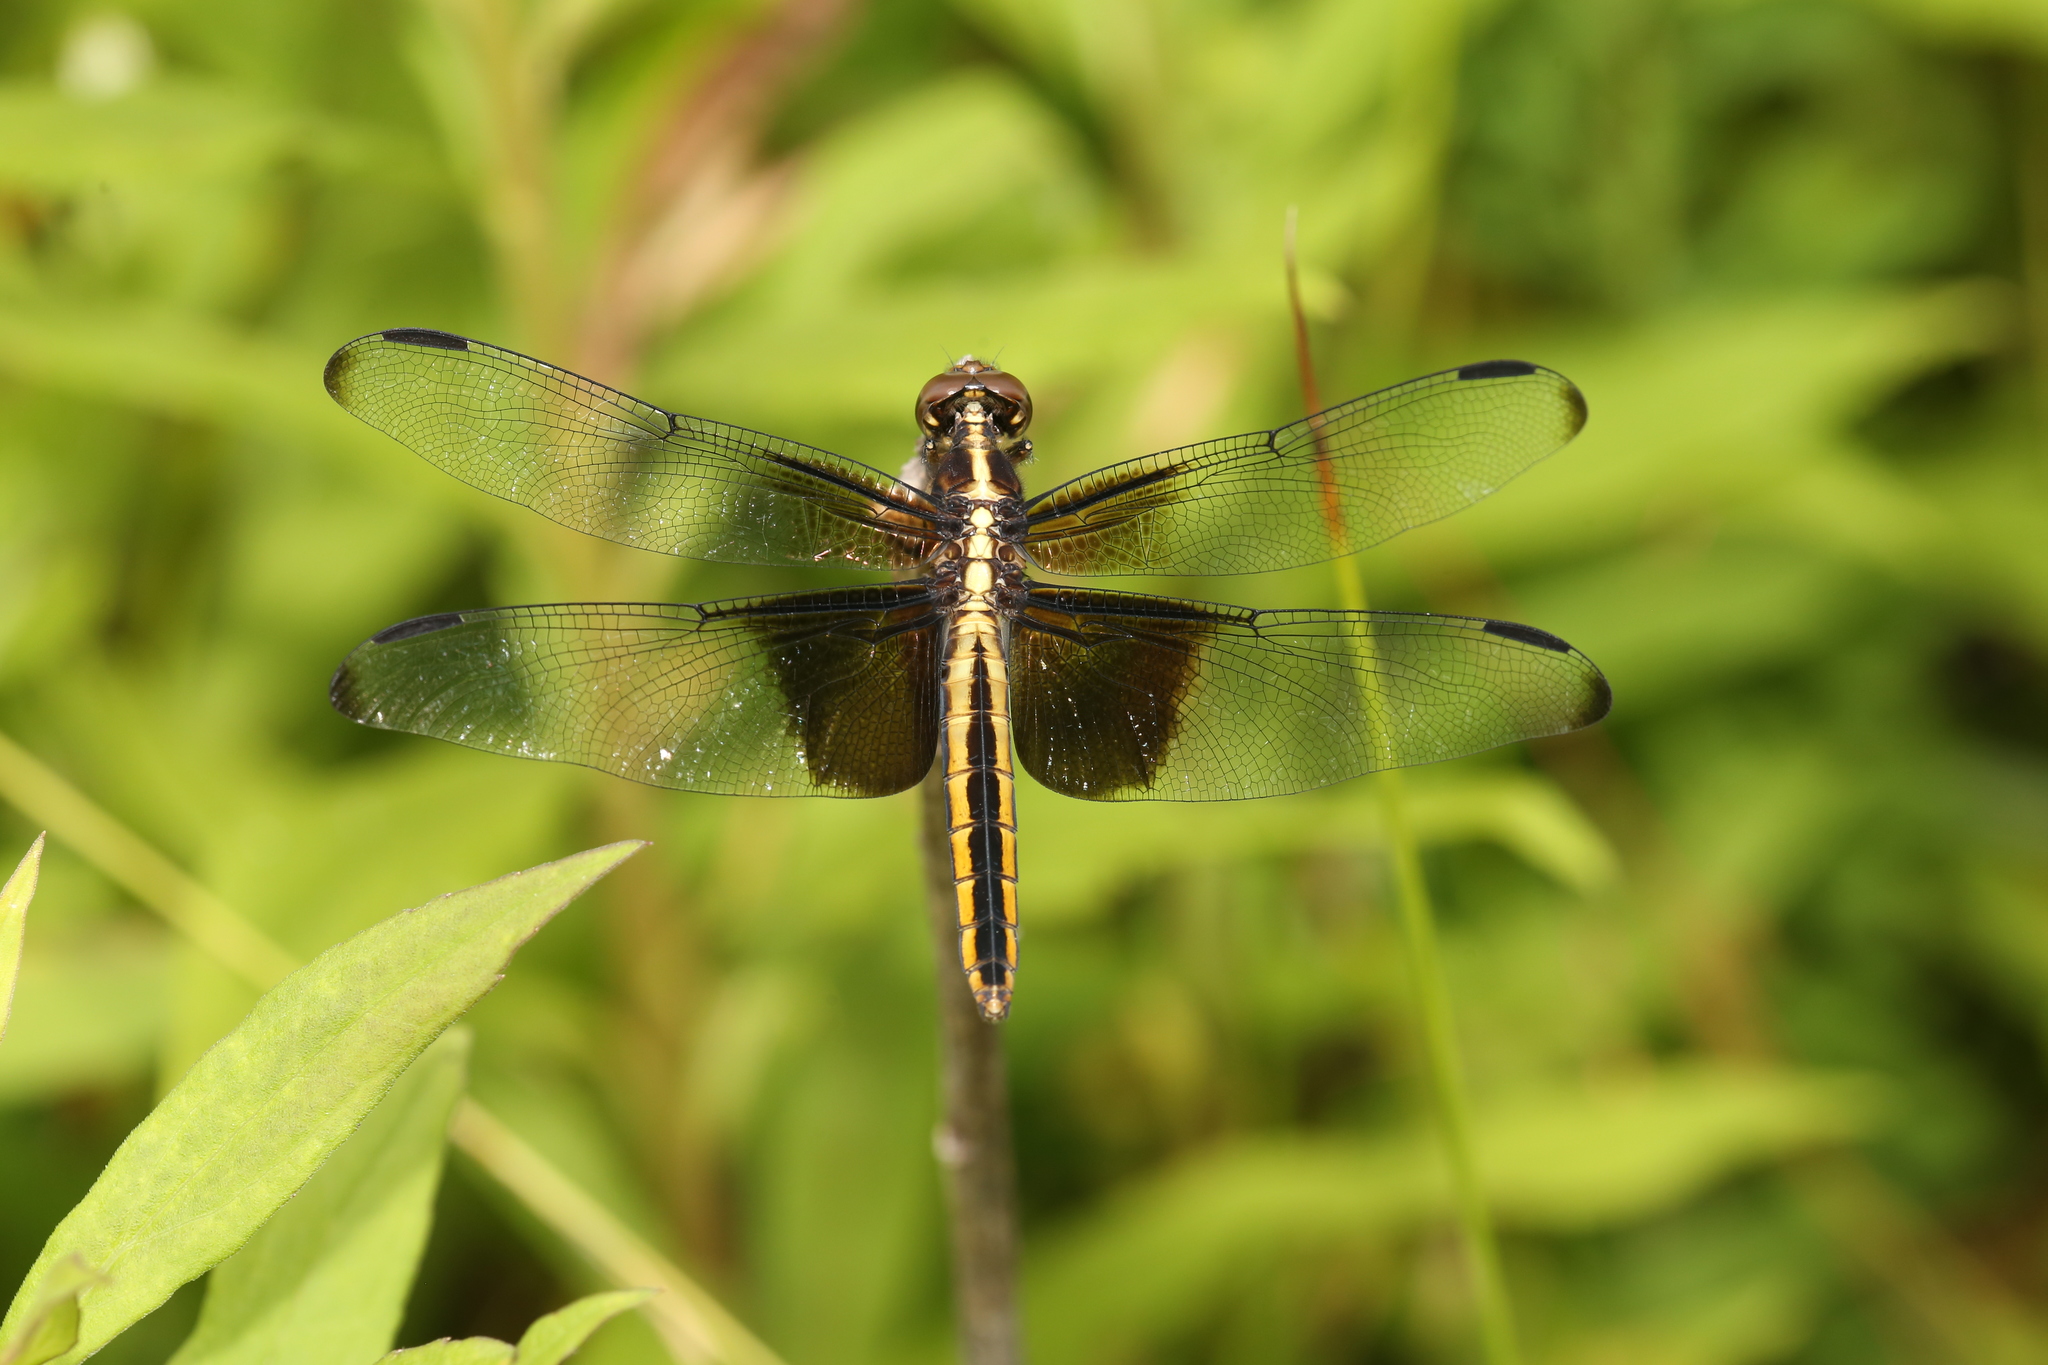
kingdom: Animalia
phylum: Arthropoda
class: Insecta
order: Odonata
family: Libellulidae
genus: Libellula
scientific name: Libellula luctuosa
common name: Widow skimmer
